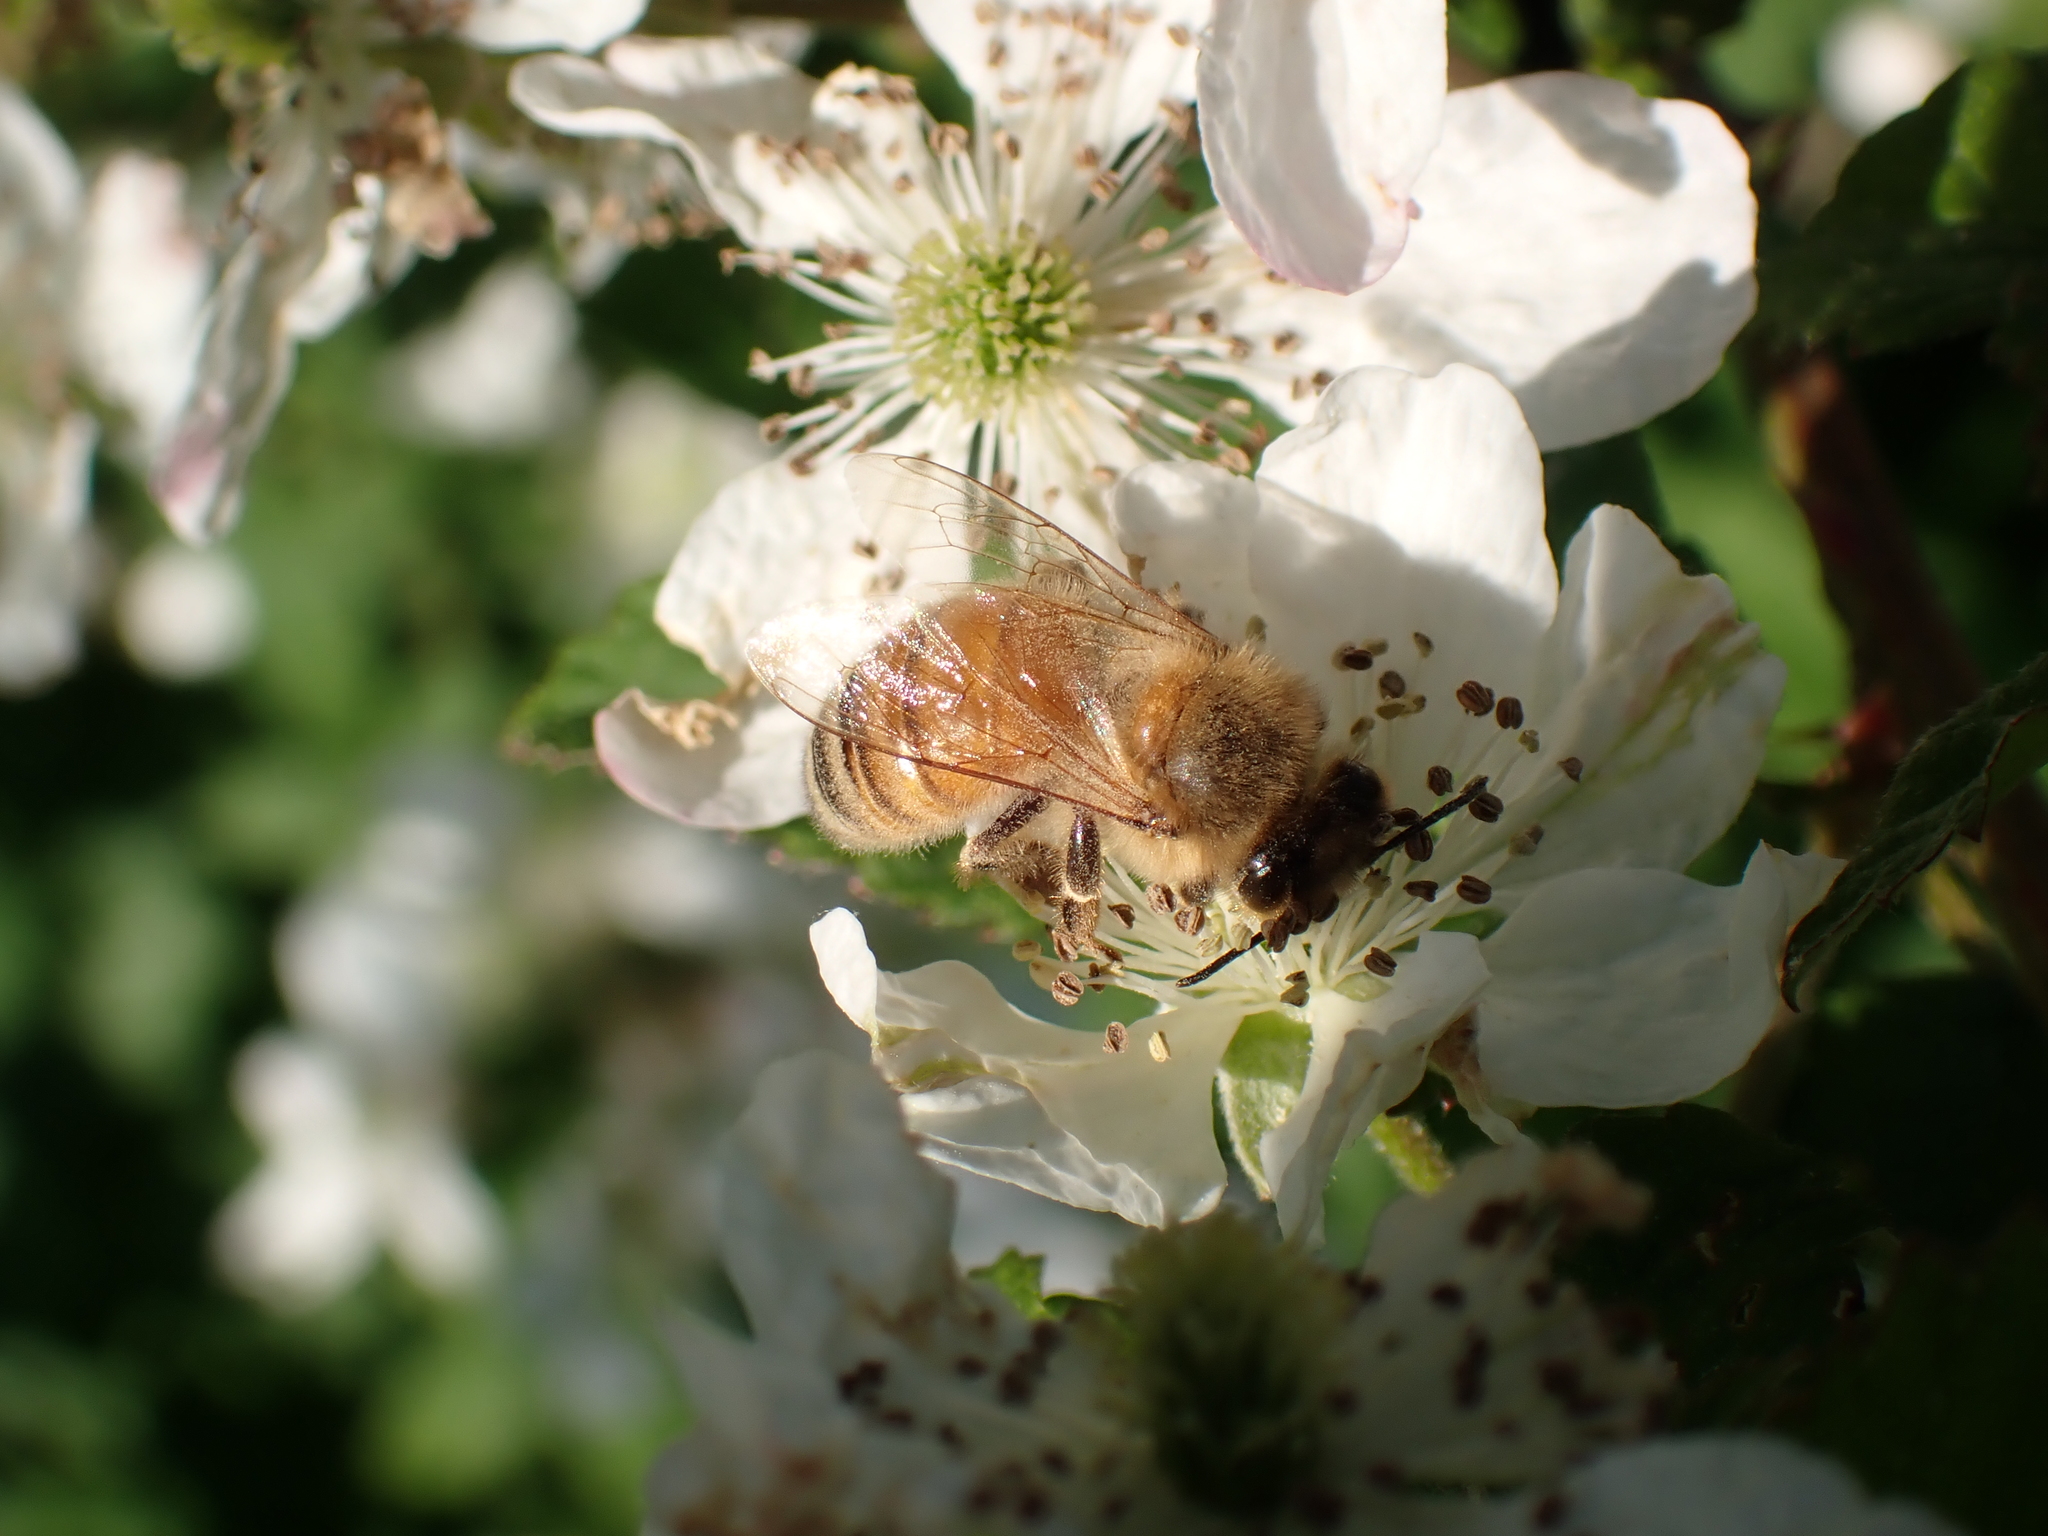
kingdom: Animalia
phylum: Arthropoda
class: Insecta
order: Hymenoptera
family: Apidae
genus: Apis
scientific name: Apis mellifera
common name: Honey bee
